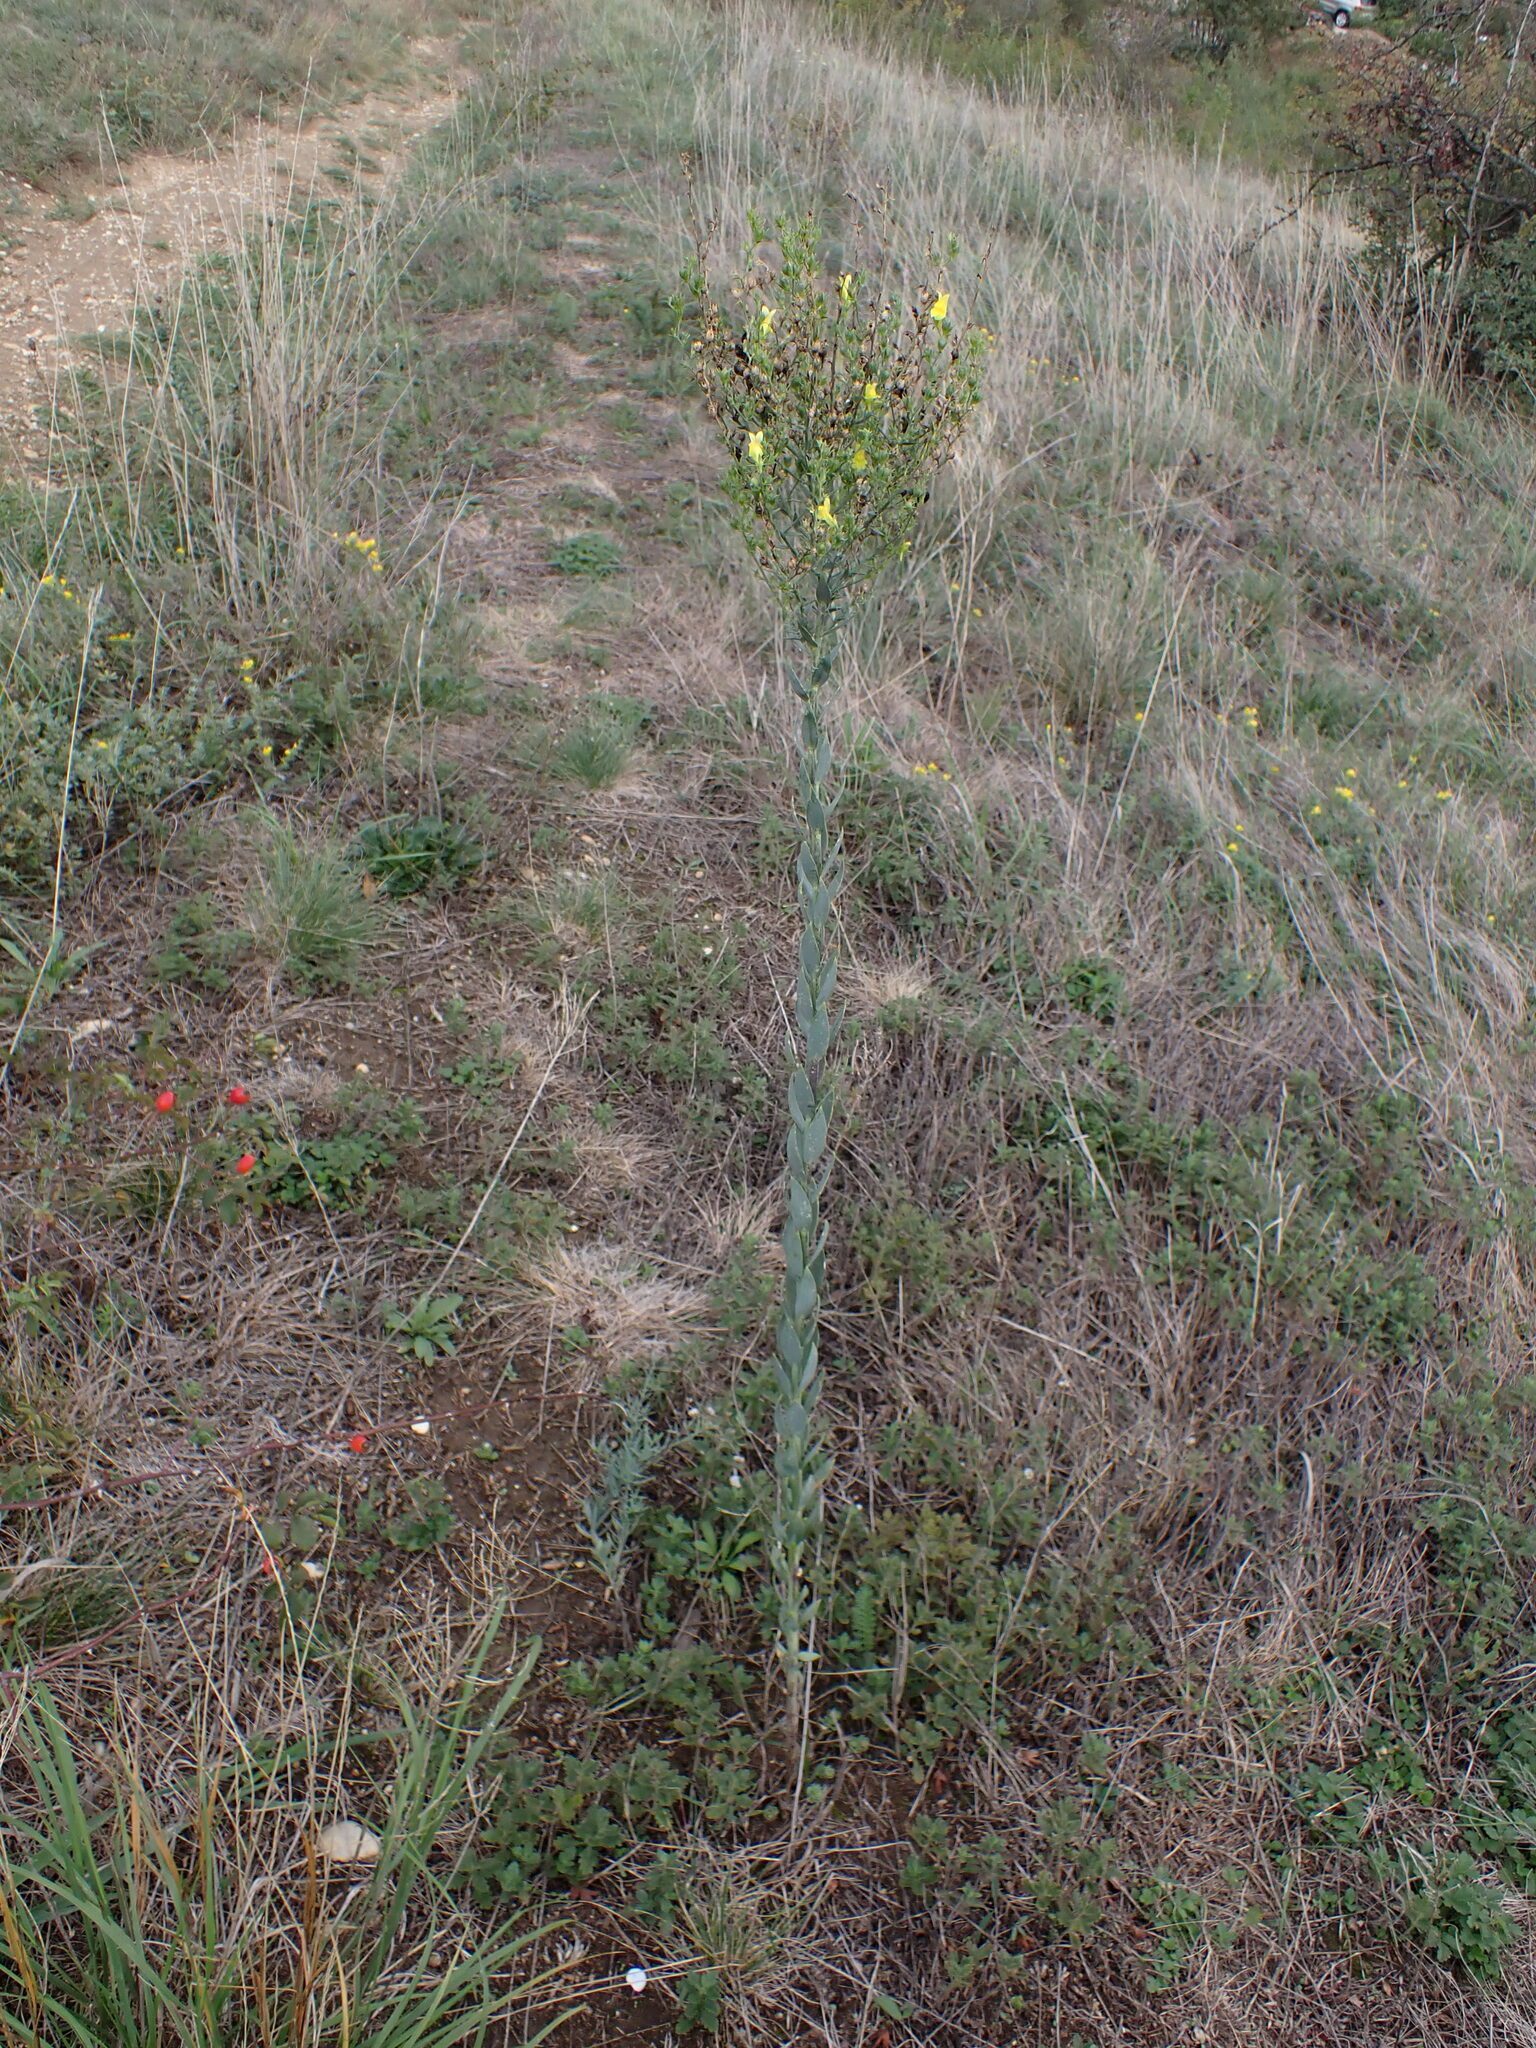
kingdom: Plantae
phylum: Tracheophyta
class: Magnoliopsida
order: Lamiales
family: Plantaginaceae
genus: Linaria
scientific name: Linaria genistifolia
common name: Broomleaf toadflax
